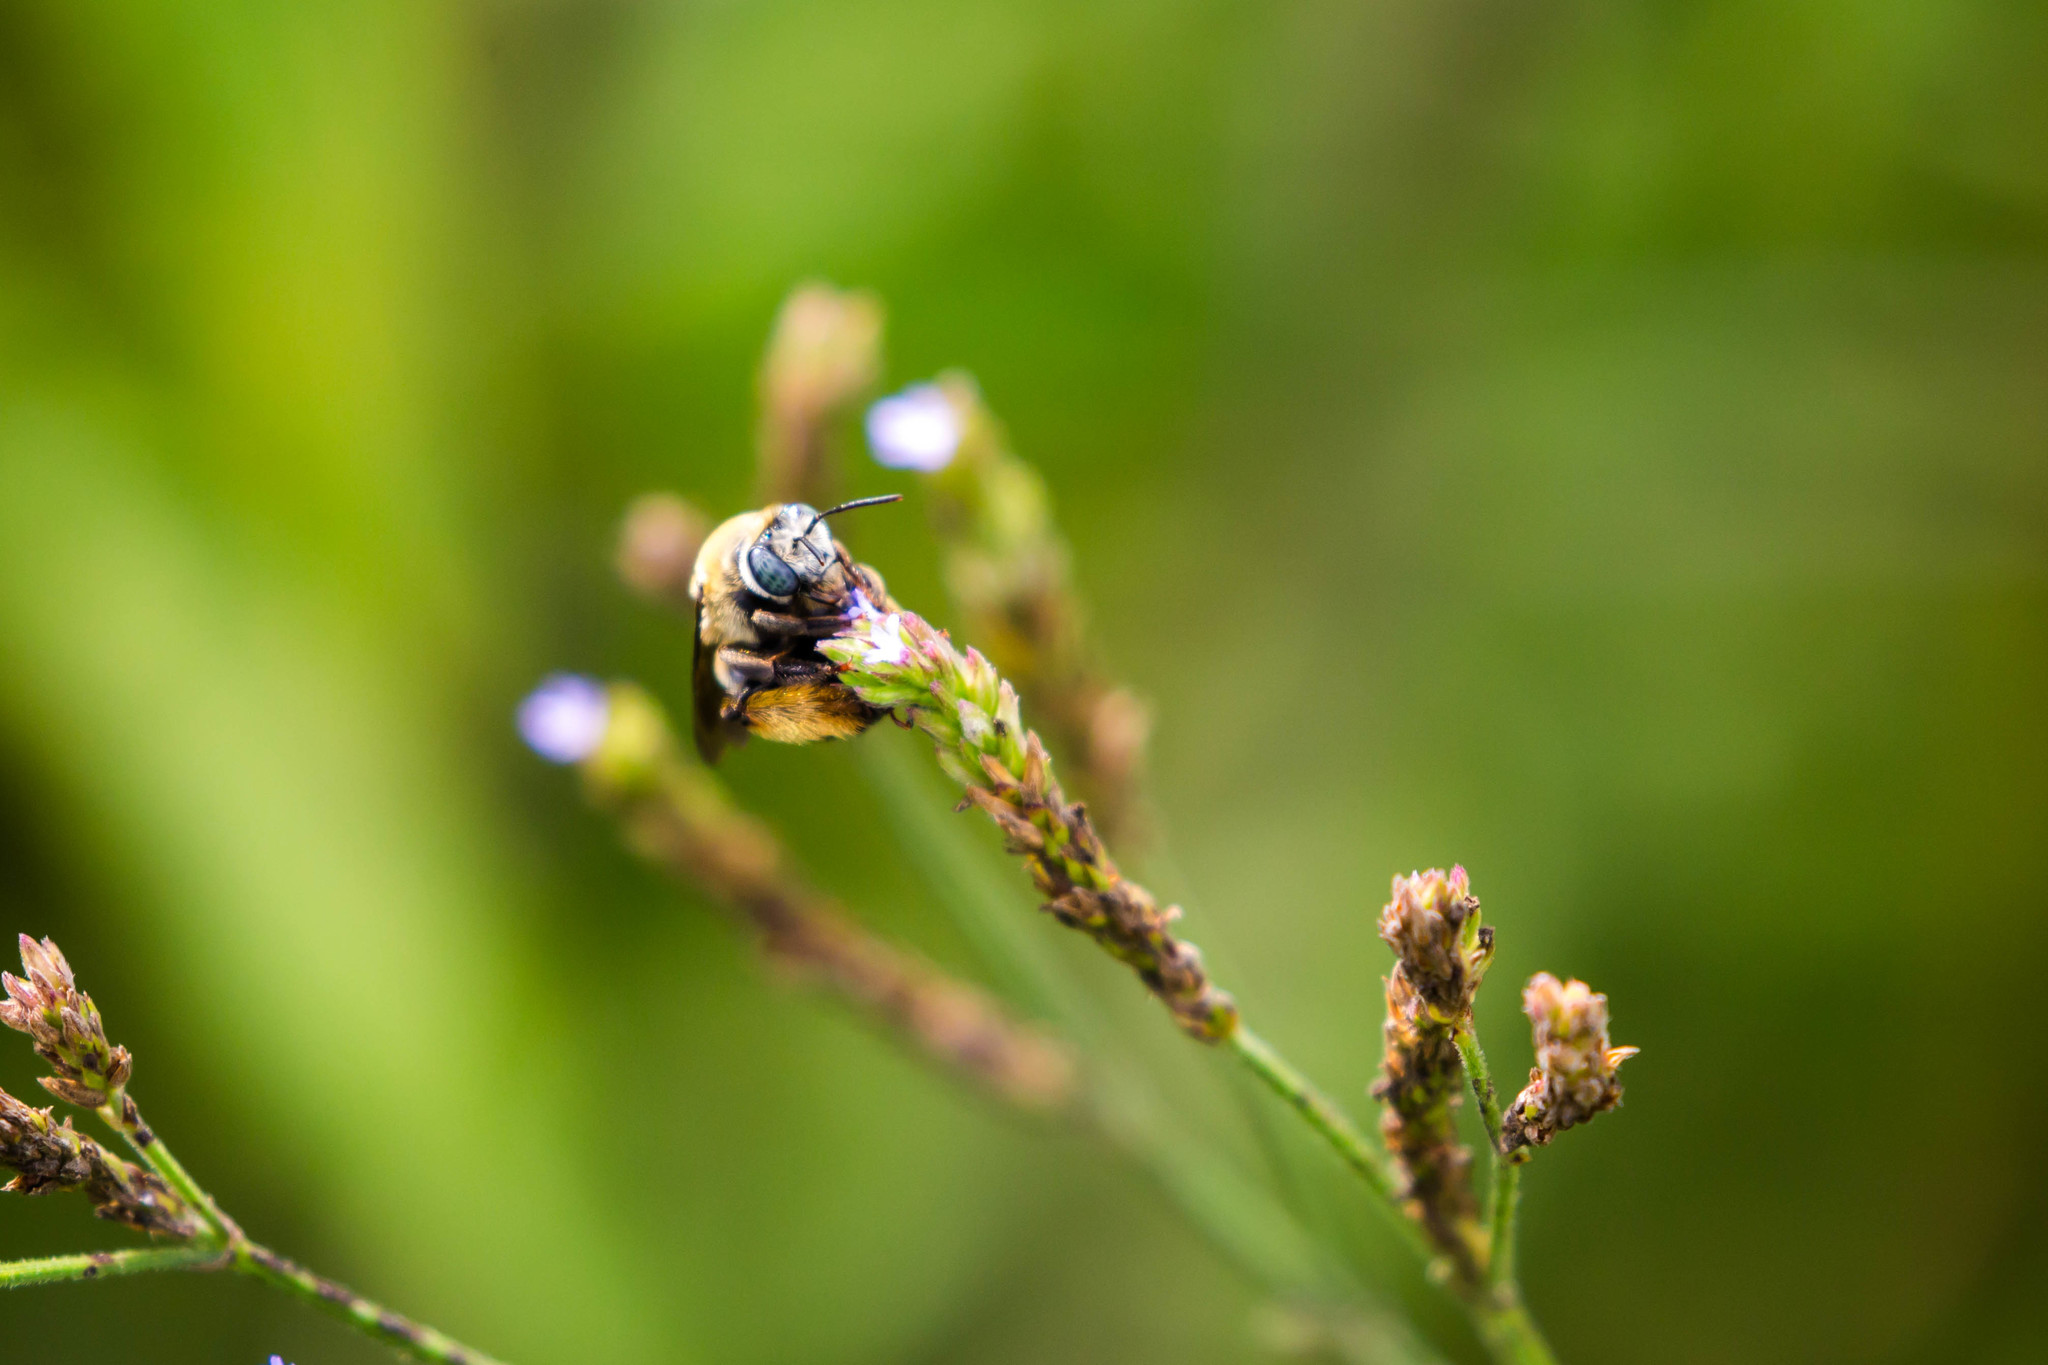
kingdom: Animalia
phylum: Arthropoda
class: Insecta
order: Hymenoptera
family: Apidae
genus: Melissodes
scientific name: Melissodes comptoides
